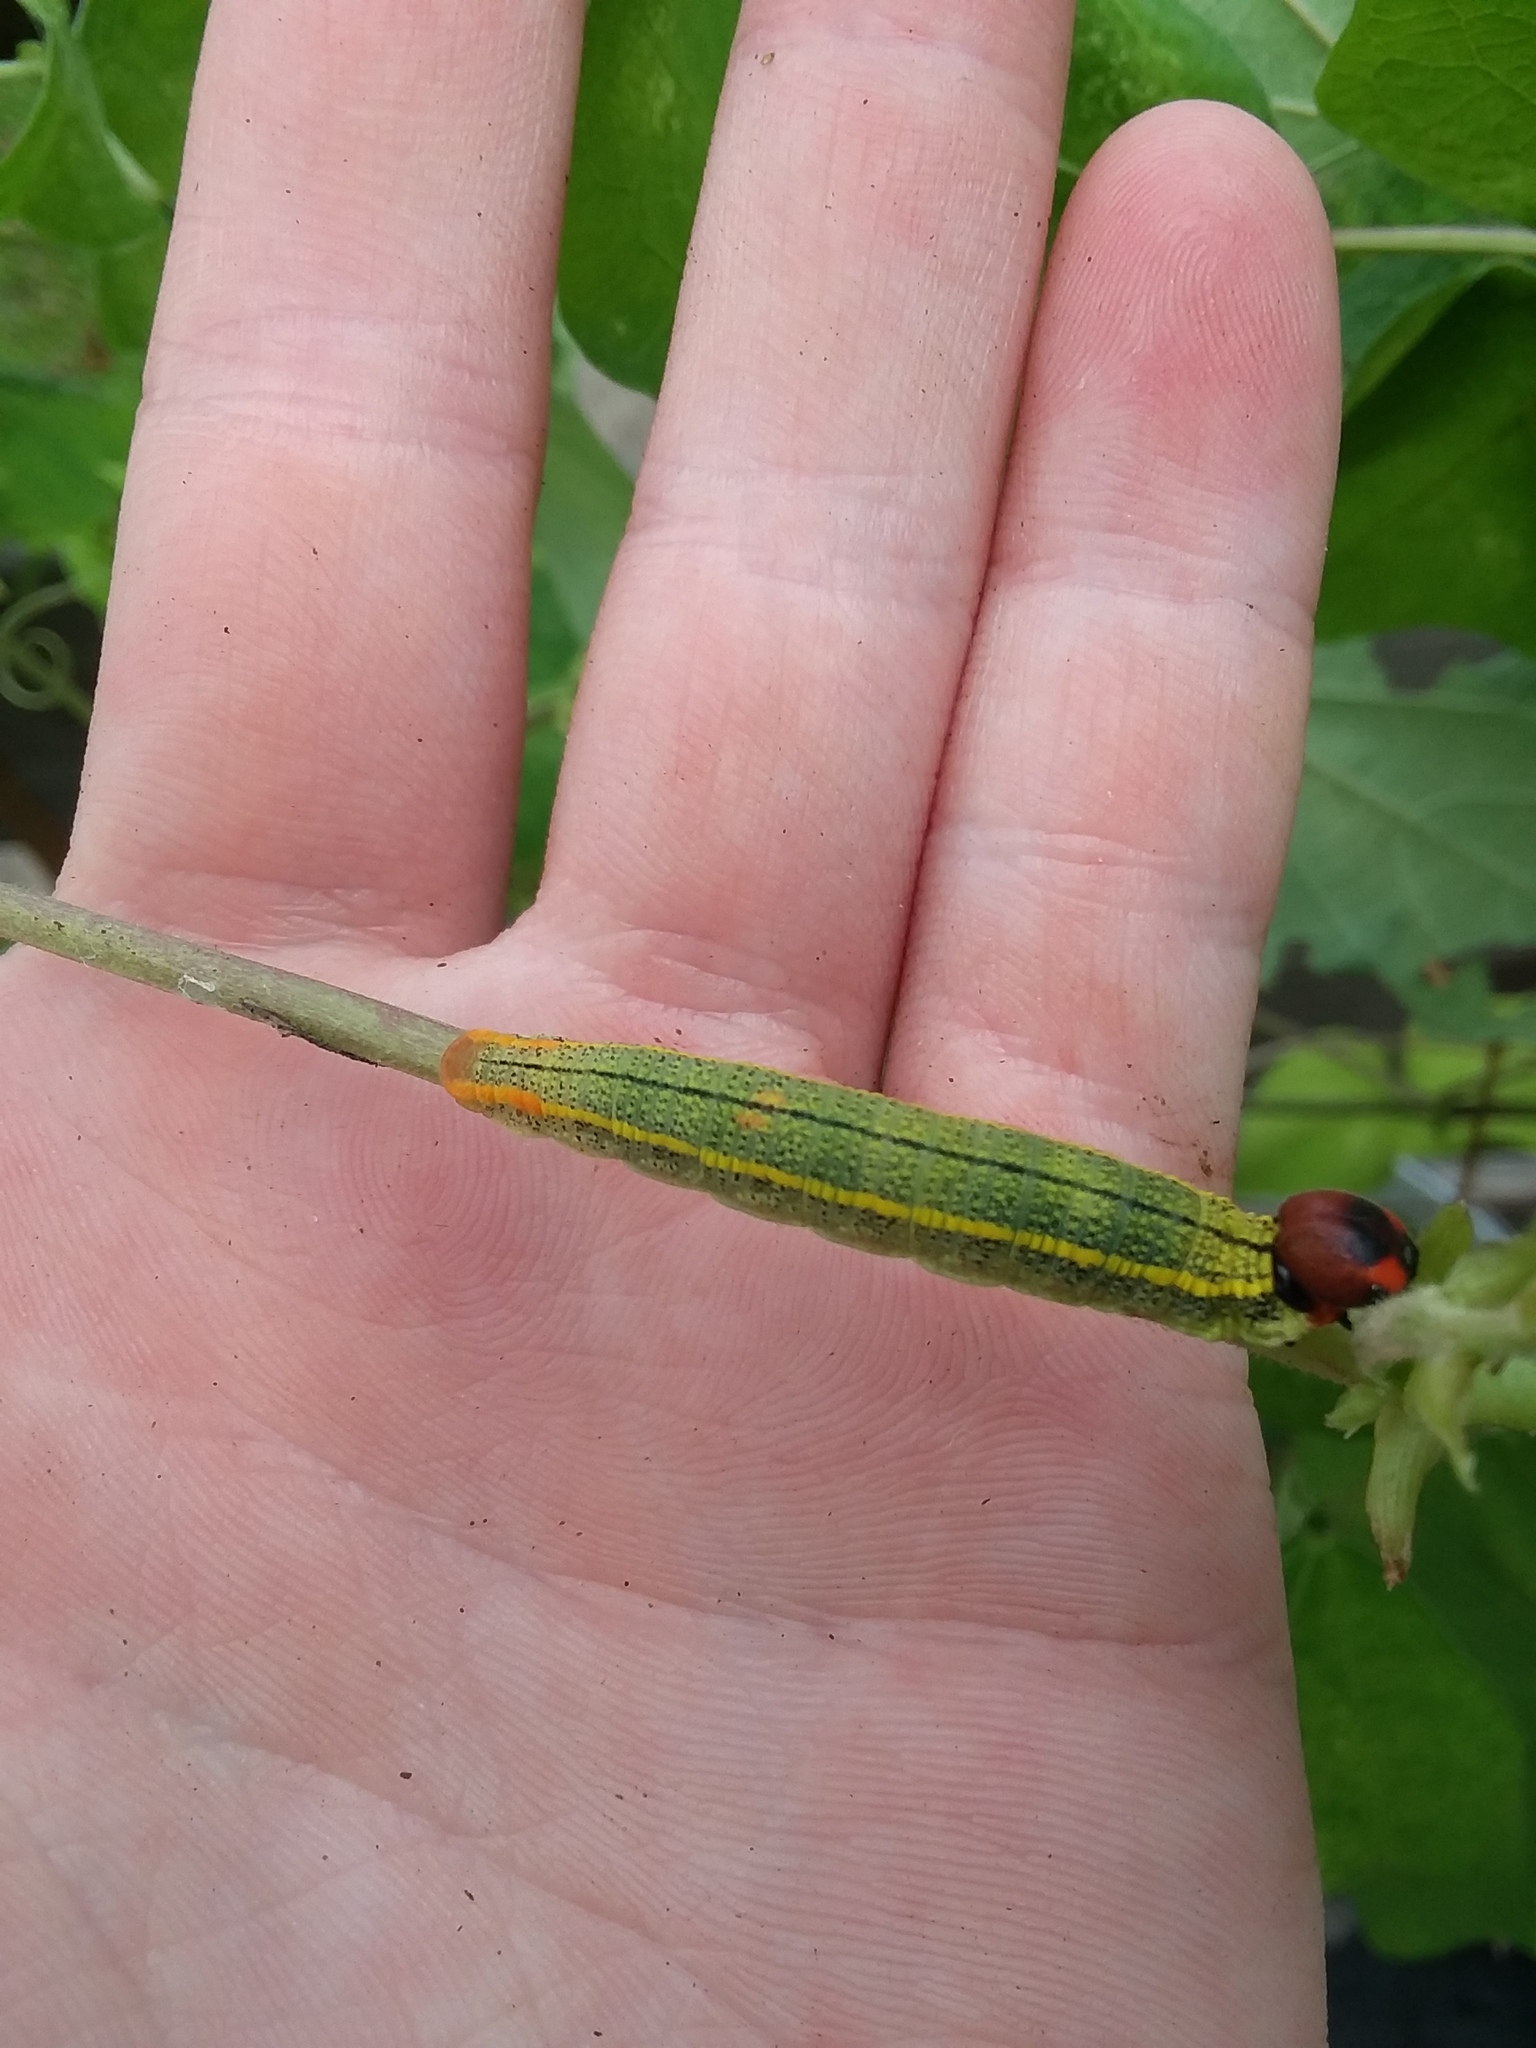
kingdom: Animalia
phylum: Arthropoda
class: Insecta
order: Lepidoptera
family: Hesperiidae
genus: Urbanus
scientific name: Urbanus proteus
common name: Long-tailed skipper
